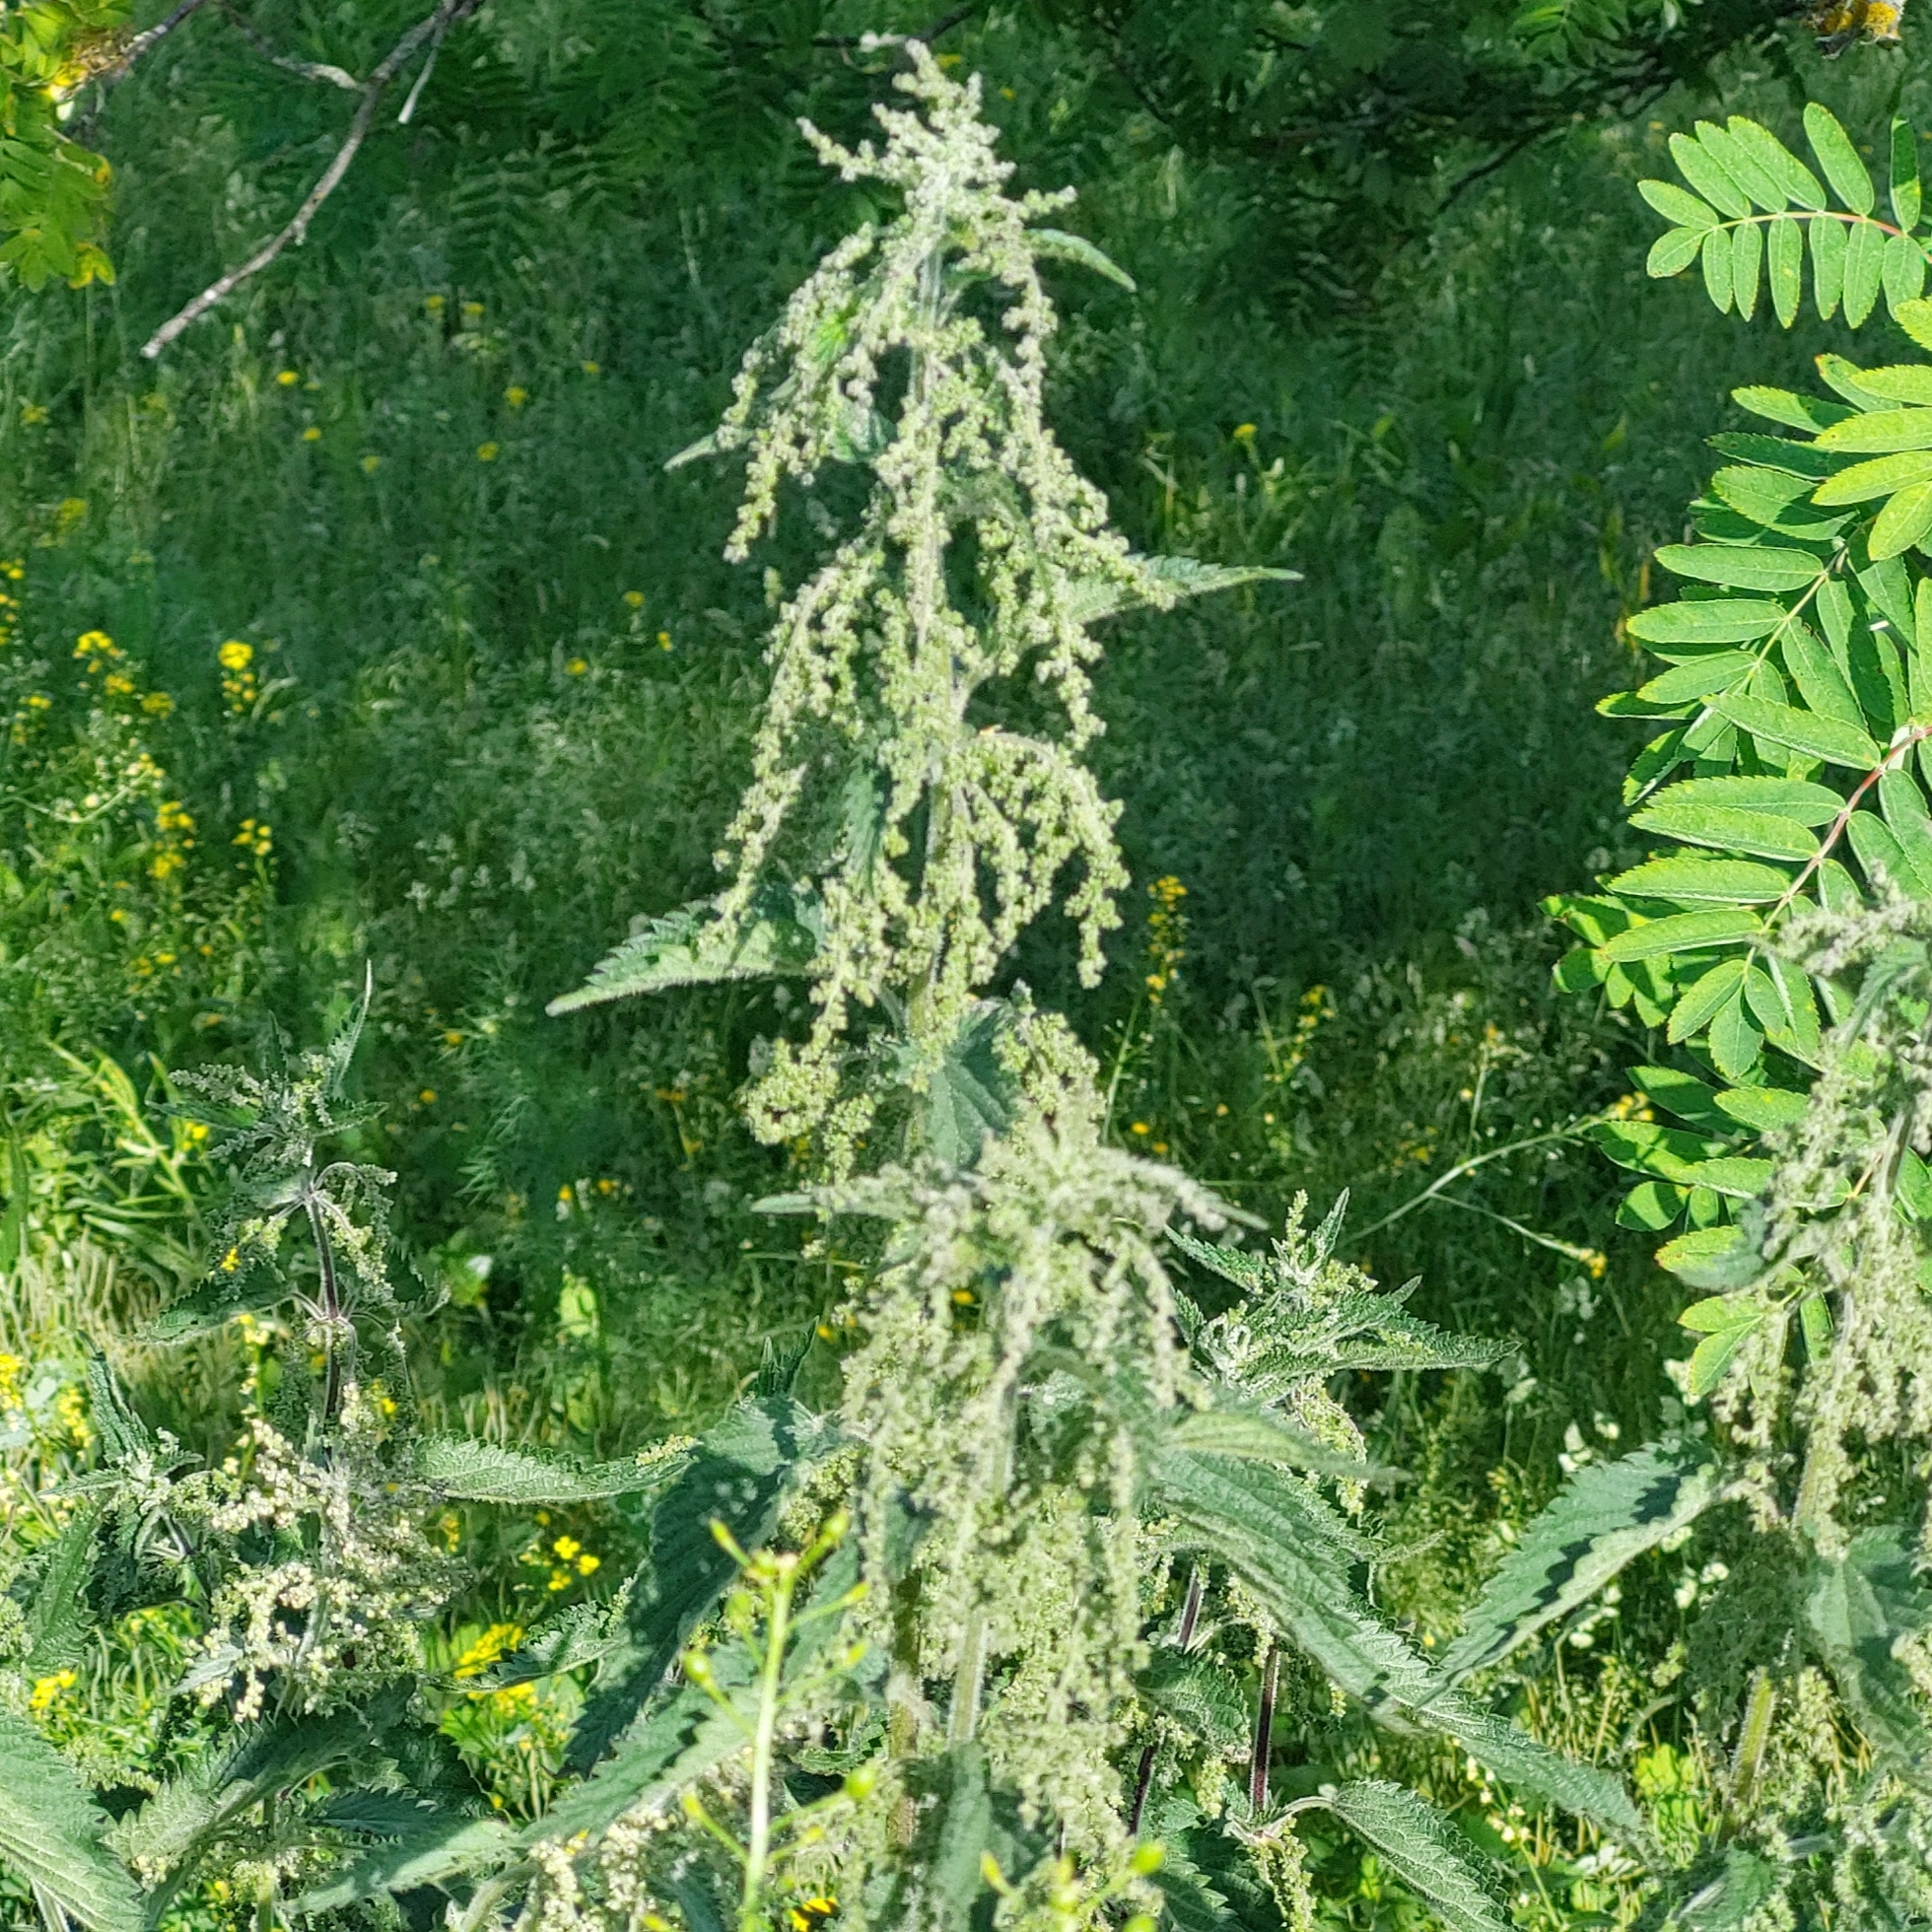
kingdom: Plantae
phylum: Tracheophyta
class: Magnoliopsida
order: Rosales
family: Urticaceae
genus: Urtica
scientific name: Urtica dioica
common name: Common nettle
